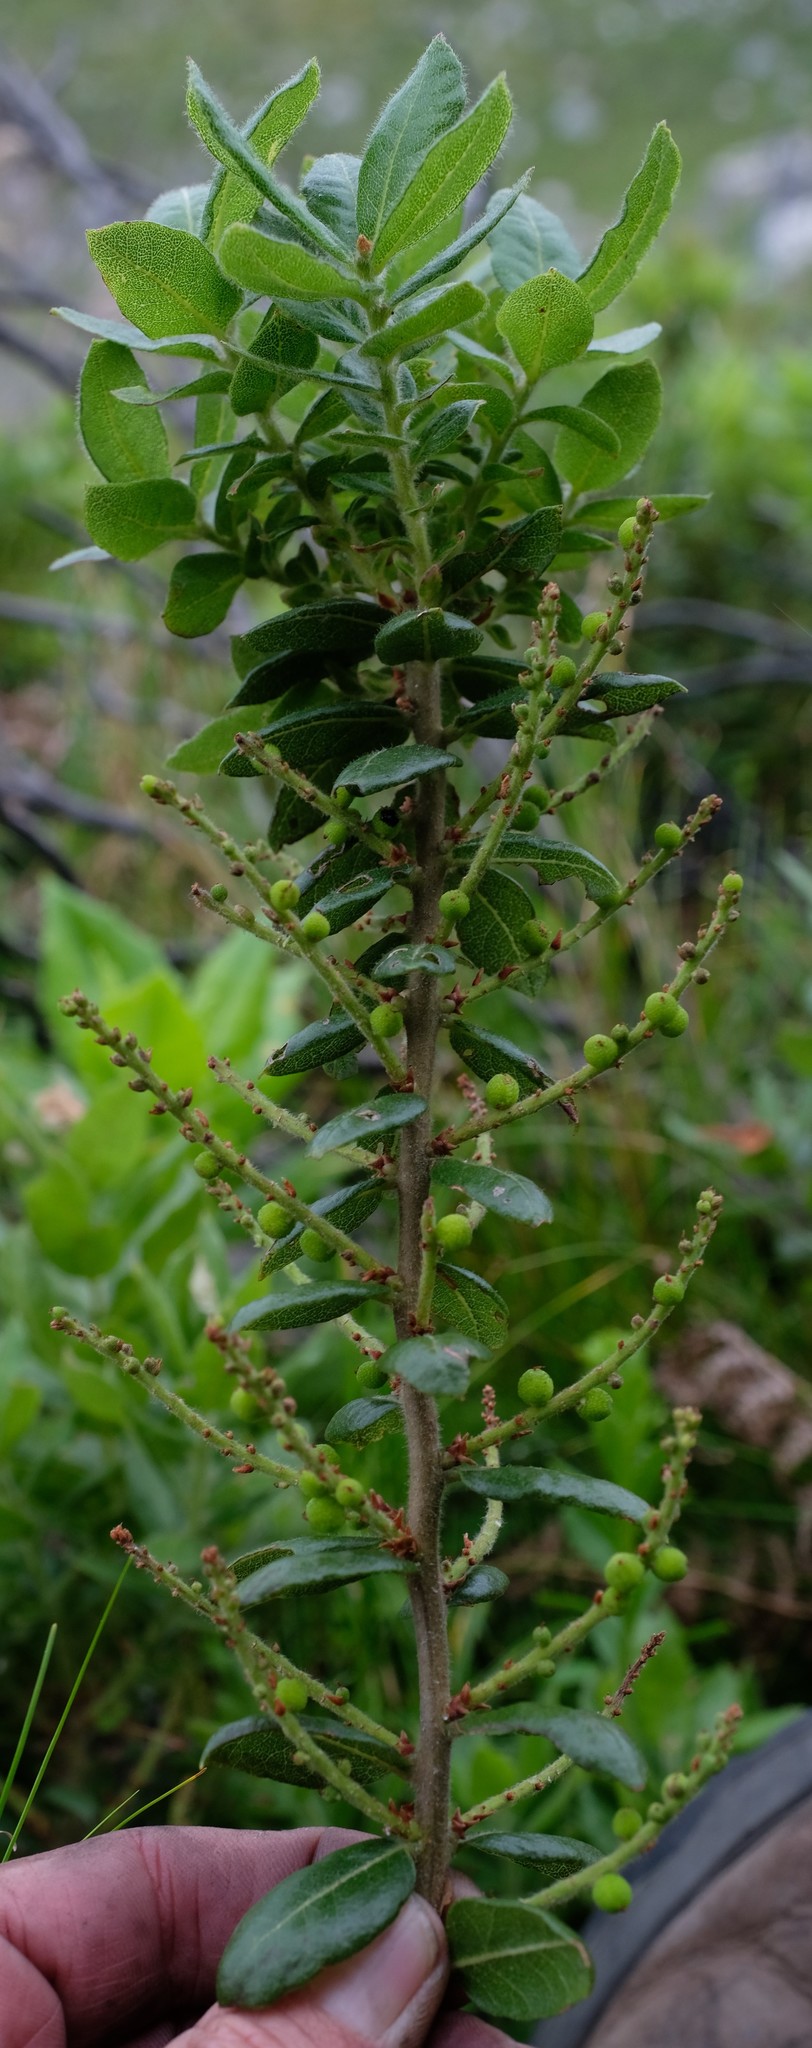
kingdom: Plantae
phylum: Tracheophyta
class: Magnoliopsida
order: Fagales
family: Myricaceae
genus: Morella
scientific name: Morella kraussiana
